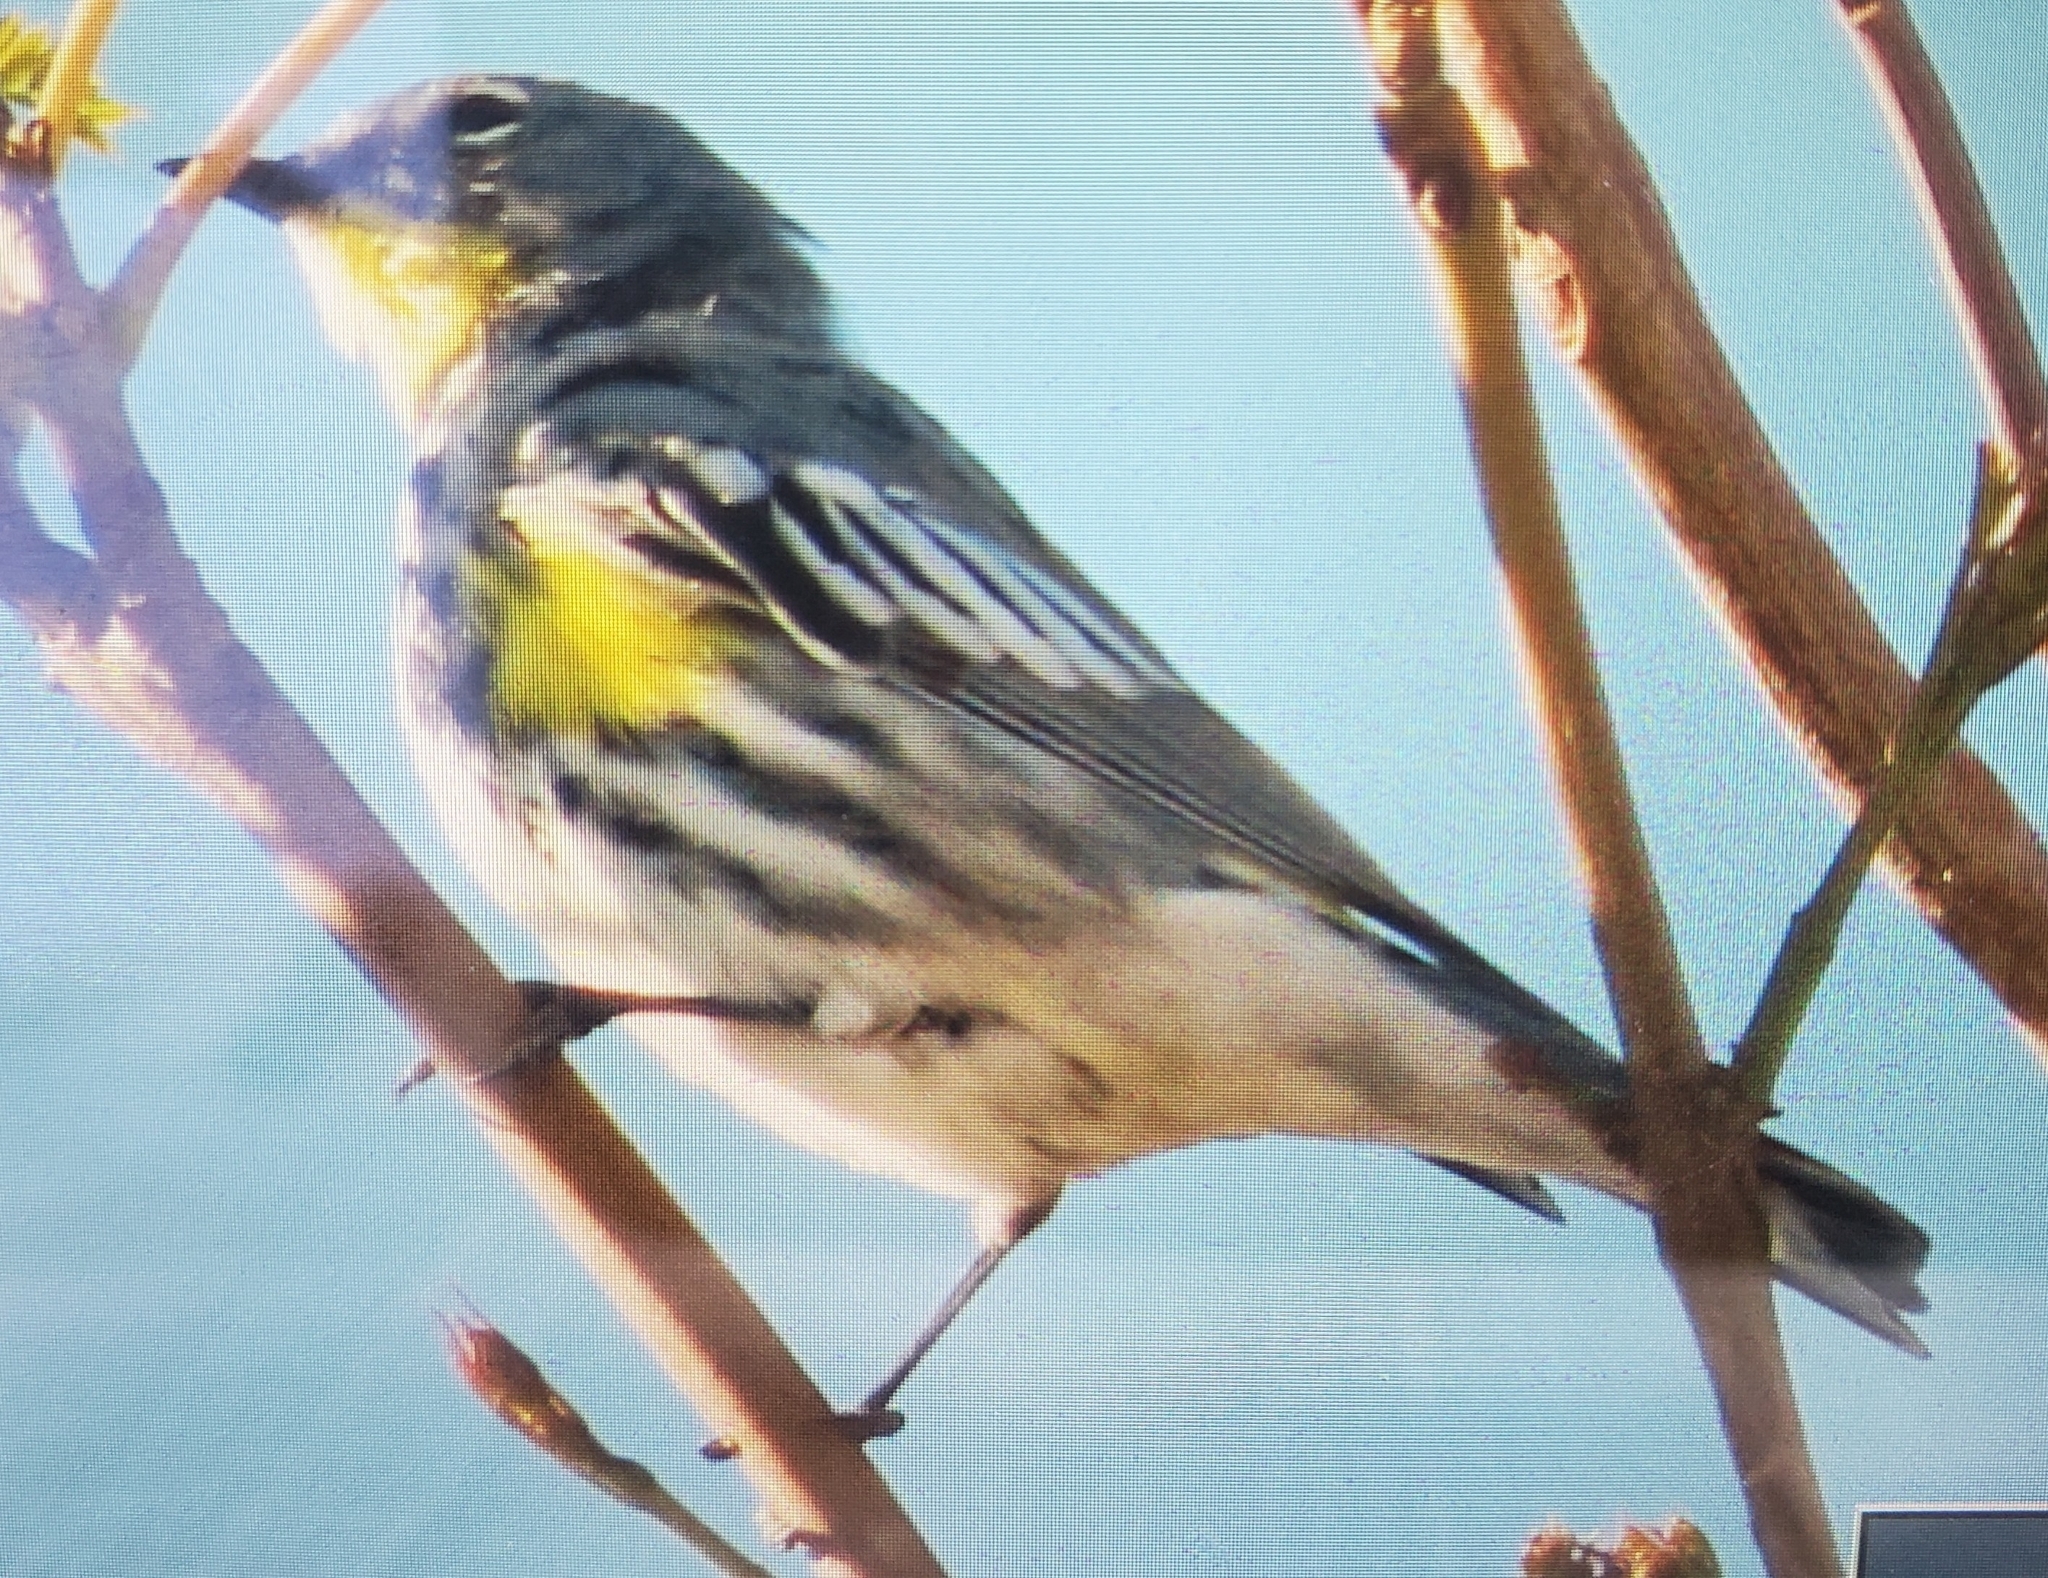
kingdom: Animalia
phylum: Chordata
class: Aves
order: Passeriformes
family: Parulidae
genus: Setophaga
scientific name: Setophaga auduboni
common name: Audubon's warbler
